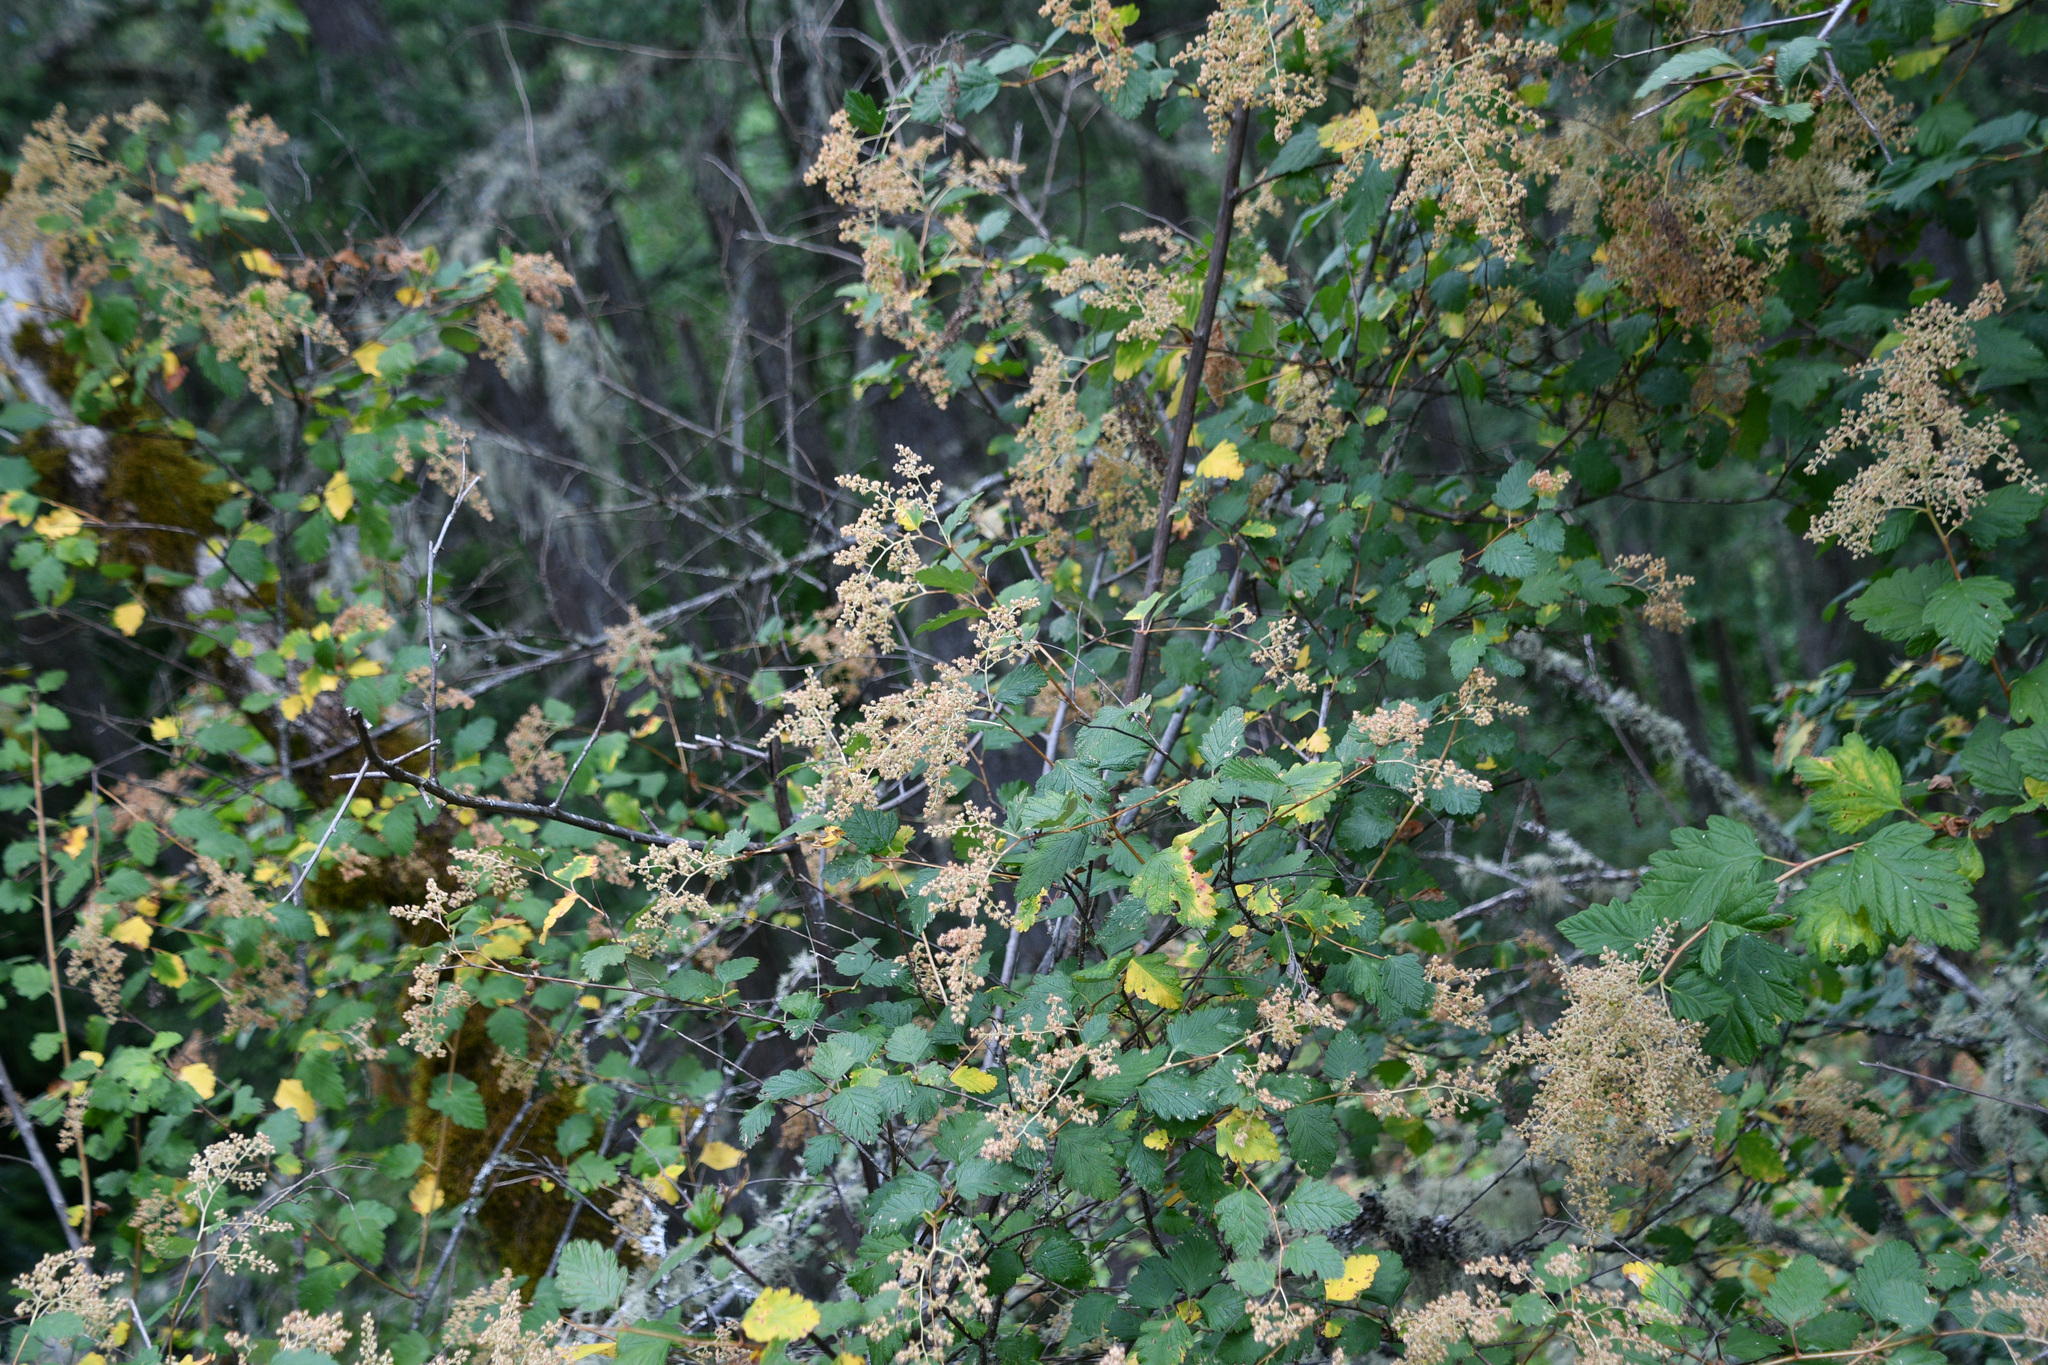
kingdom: Plantae
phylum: Tracheophyta
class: Magnoliopsida
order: Rosales
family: Rosaceae
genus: Holodiscus
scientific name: Holodiscus discolor
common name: Oceanspray
